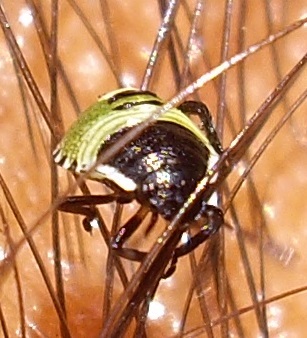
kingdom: Animalia
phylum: Arthropoda
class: Insecta
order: Hemiptera
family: Pentatomidae
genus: Palomena
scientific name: Palomena prasina
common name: Green shieldbug
